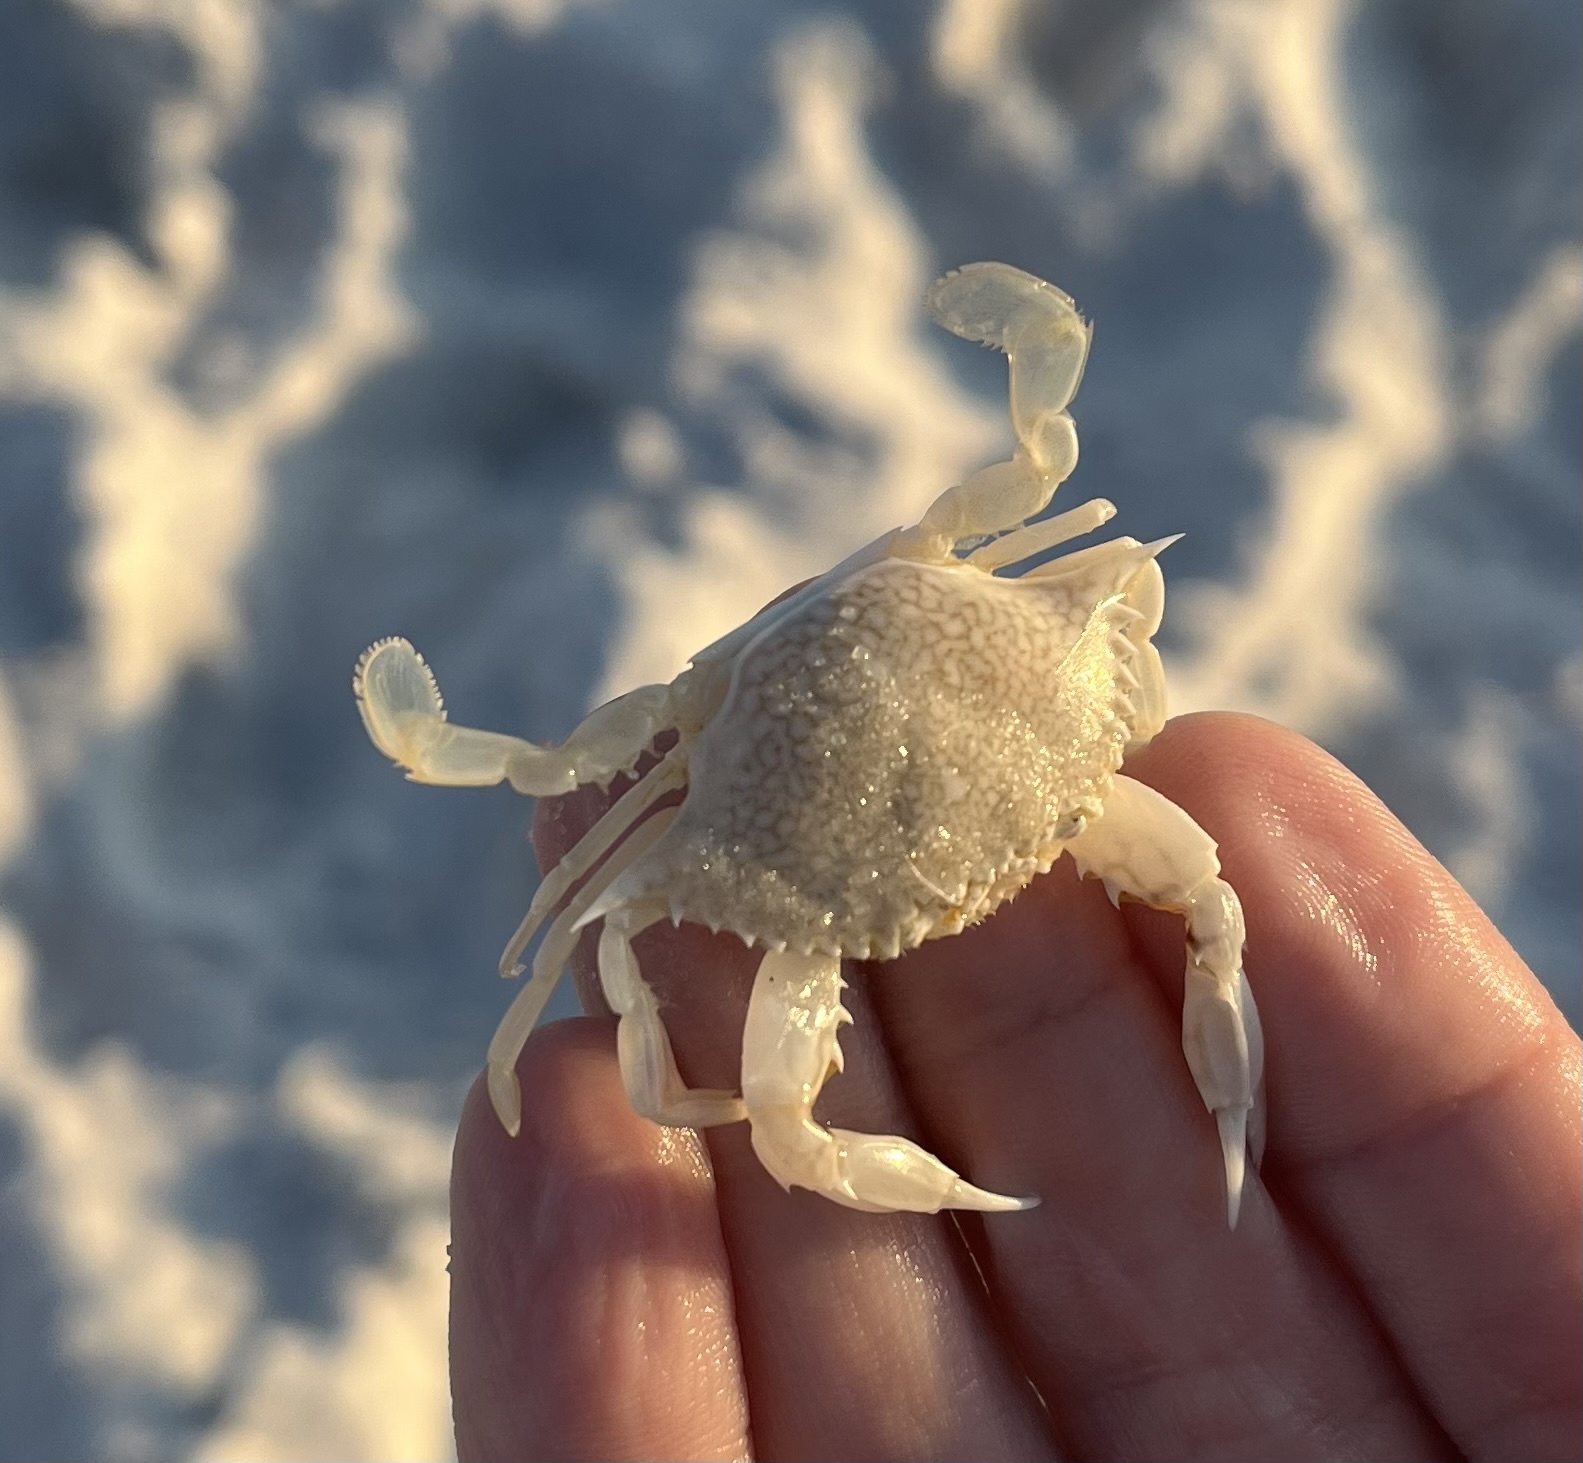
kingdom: Animalia
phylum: Arthropoda
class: Malacostraca
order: Decapoda
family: Portunidae
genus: Arenaeus
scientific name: Arenaeus cribrarius
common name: Speckled crab
